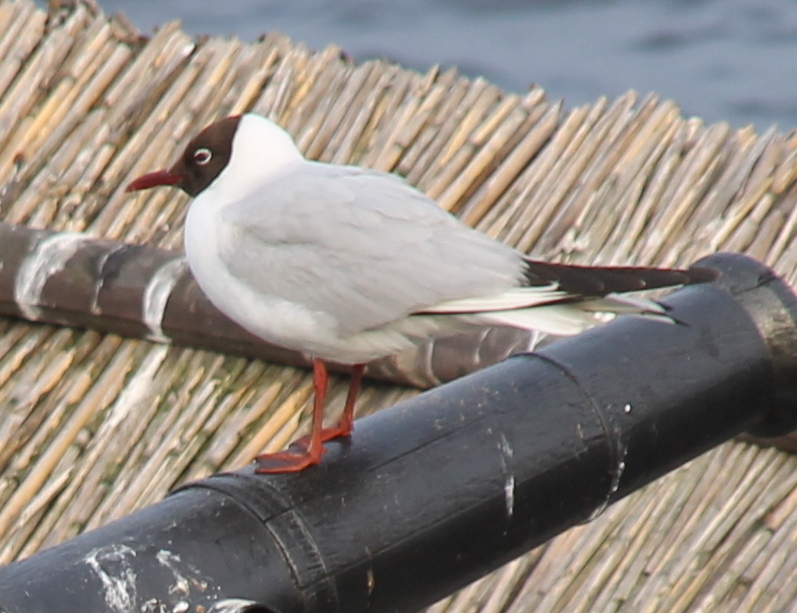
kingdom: Animalia
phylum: Chordata
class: Aves
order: Charadriiformes
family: Laridae
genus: Chroicocephalus
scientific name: Chroicocephalus ridibundus
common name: Black-headed gull
